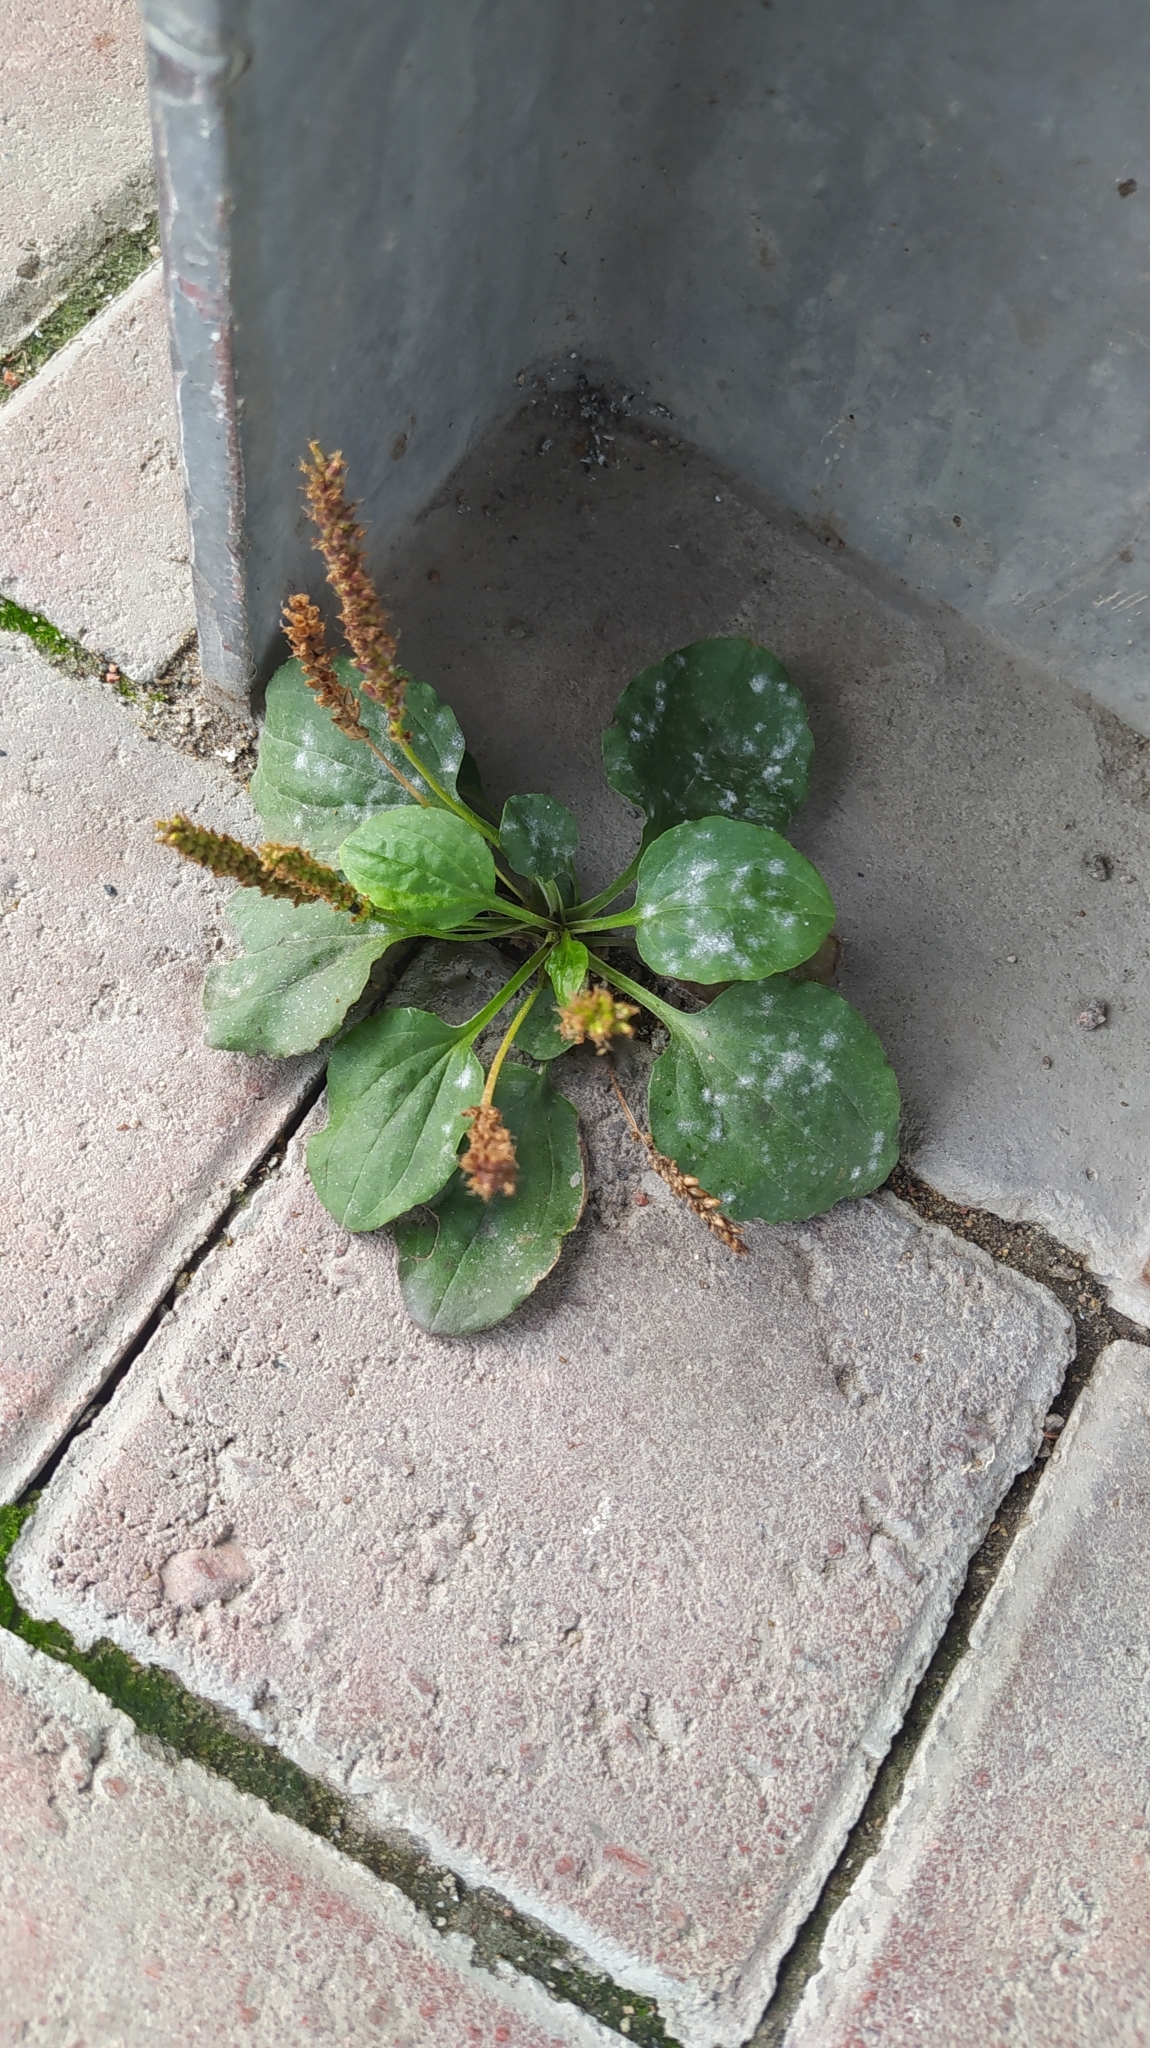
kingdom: Plantae
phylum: Tracheophyta
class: Magnoliopsida
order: Lamiales
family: Plantaginaceae
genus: Plantago
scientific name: Plantago major
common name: Common plantain
